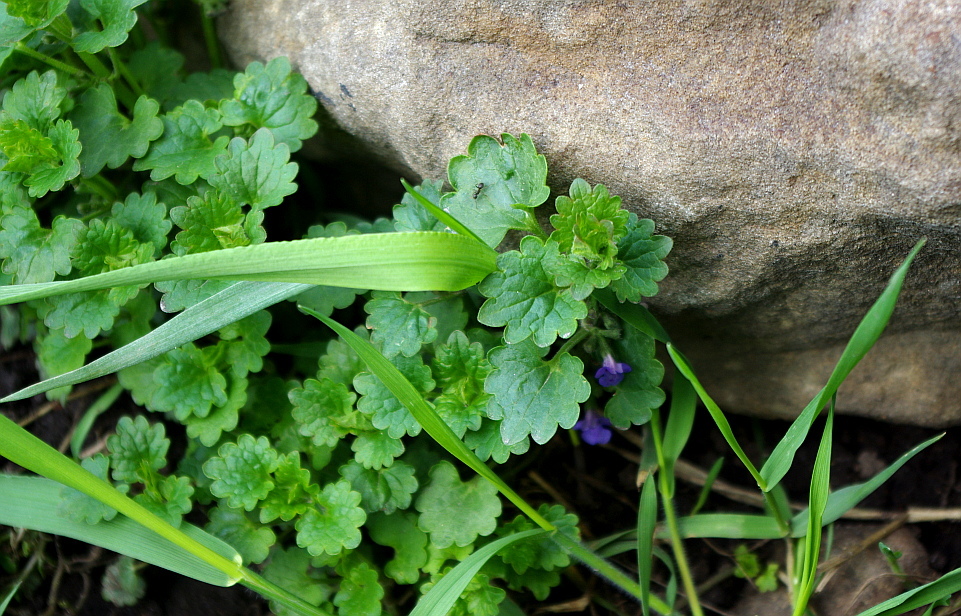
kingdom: Plantae
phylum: Tracheophyta
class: Magnoliopsida
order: Lamiales
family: Lamiaceae
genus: Glechoma
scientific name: Glechoma hederacea
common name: Ground ivy
